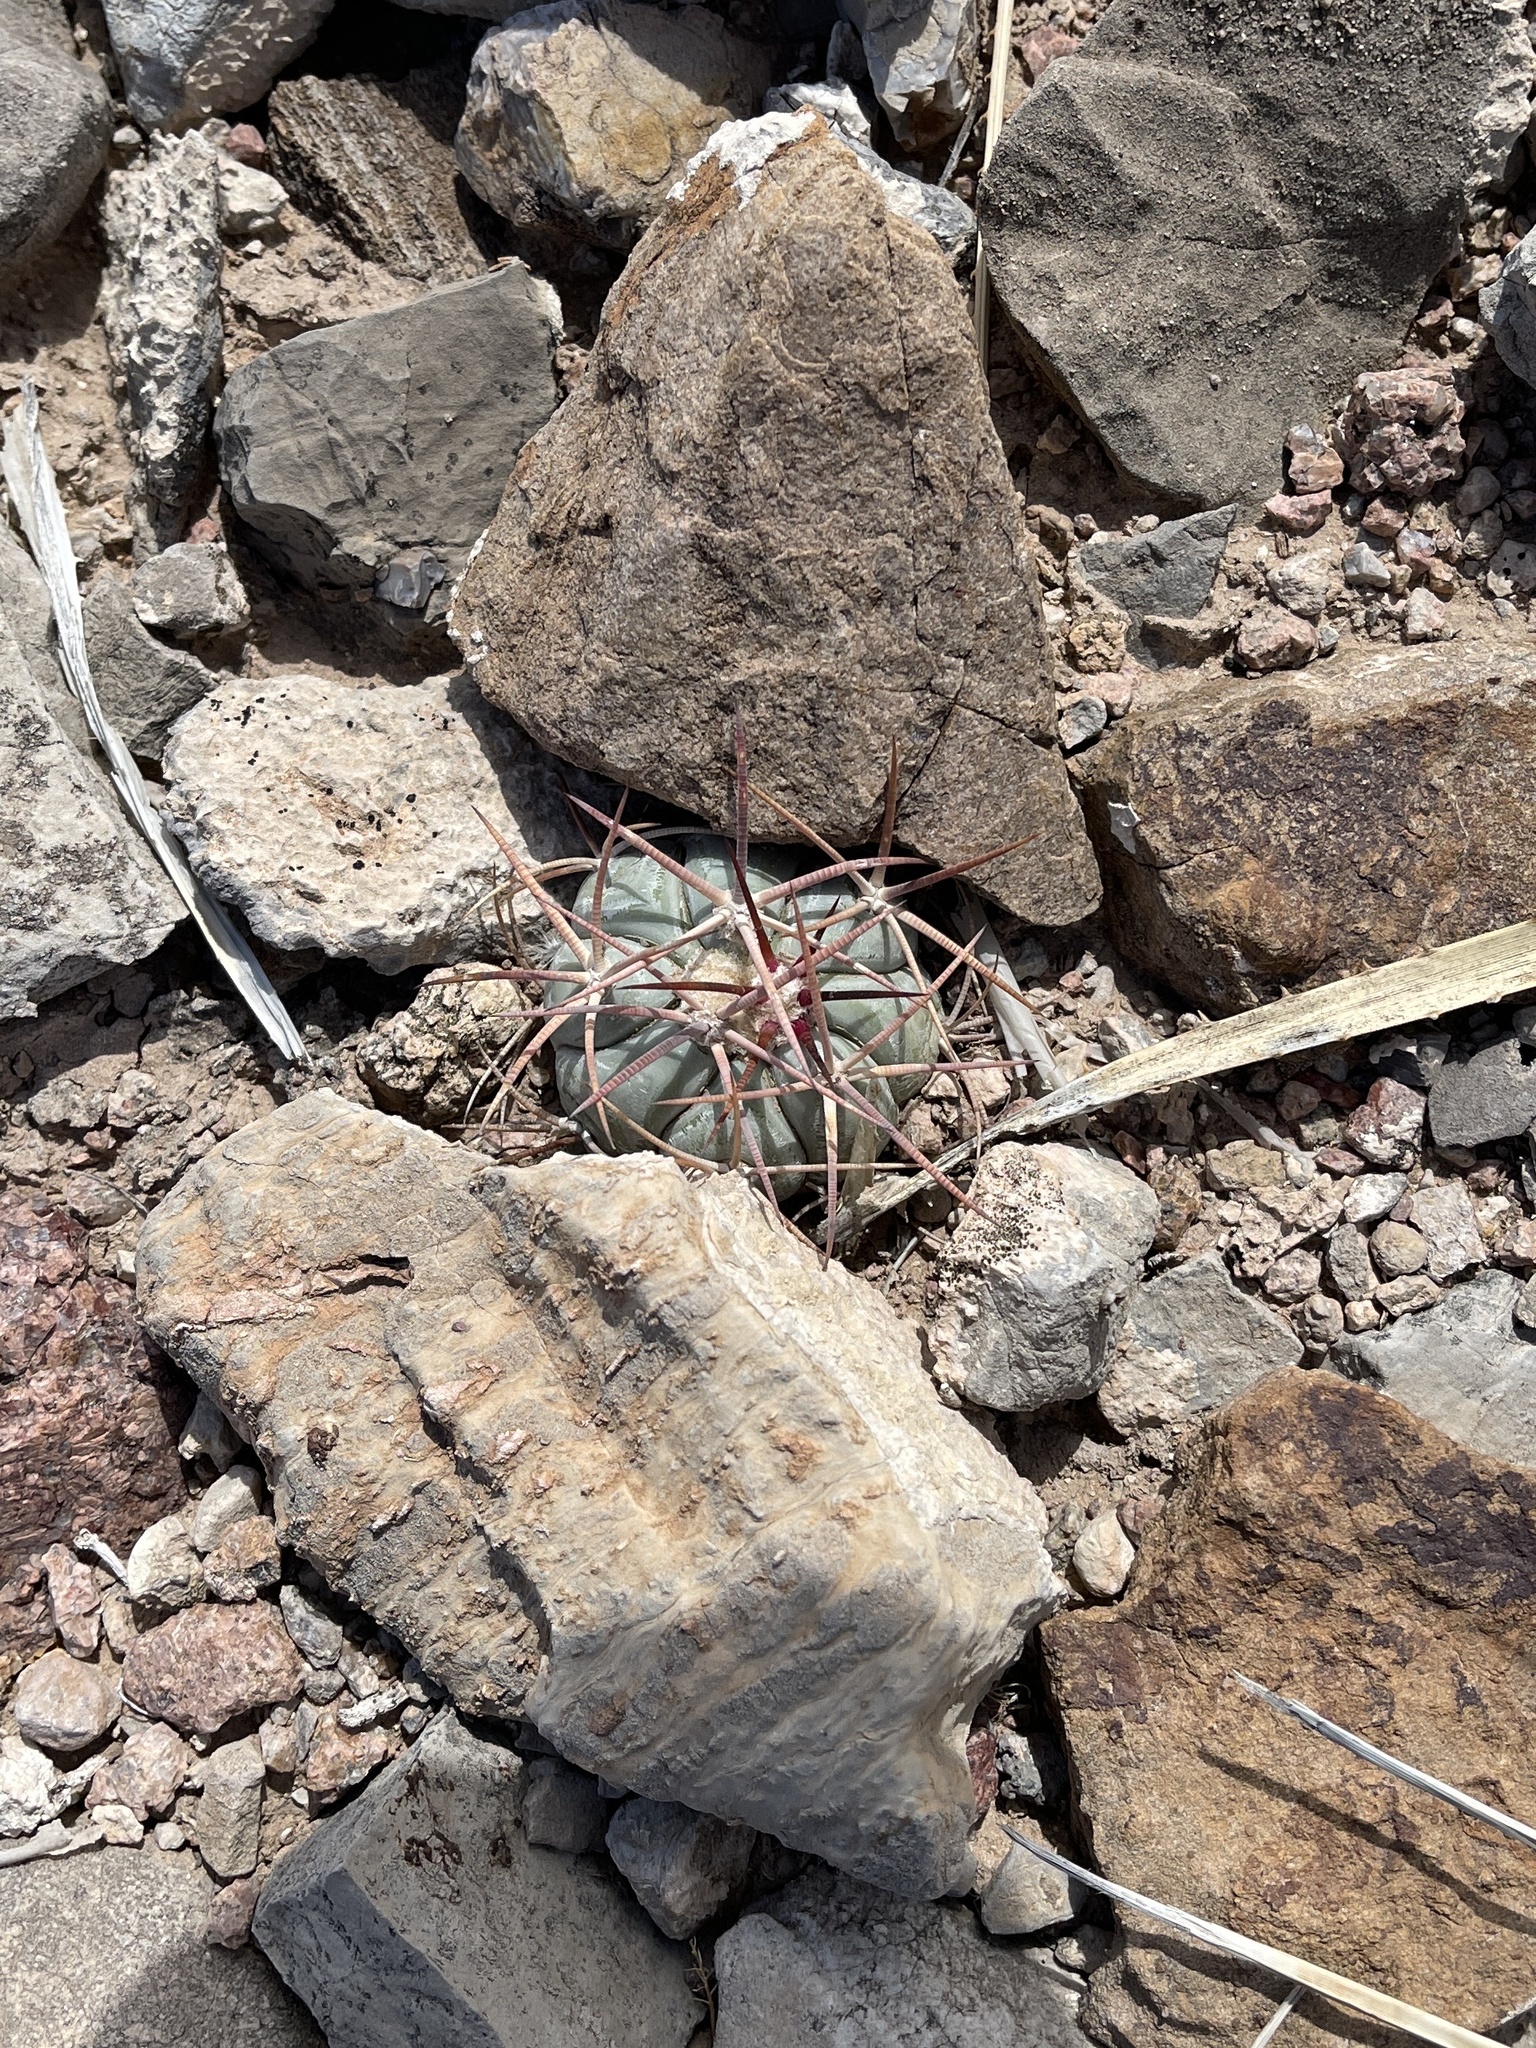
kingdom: Plantae
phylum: Tracheophyta
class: Magnoliopsida
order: Caryophyllales
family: Cactaceae
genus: Echinocactus
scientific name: Echinocactus horizonthalonius
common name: Devilshead
